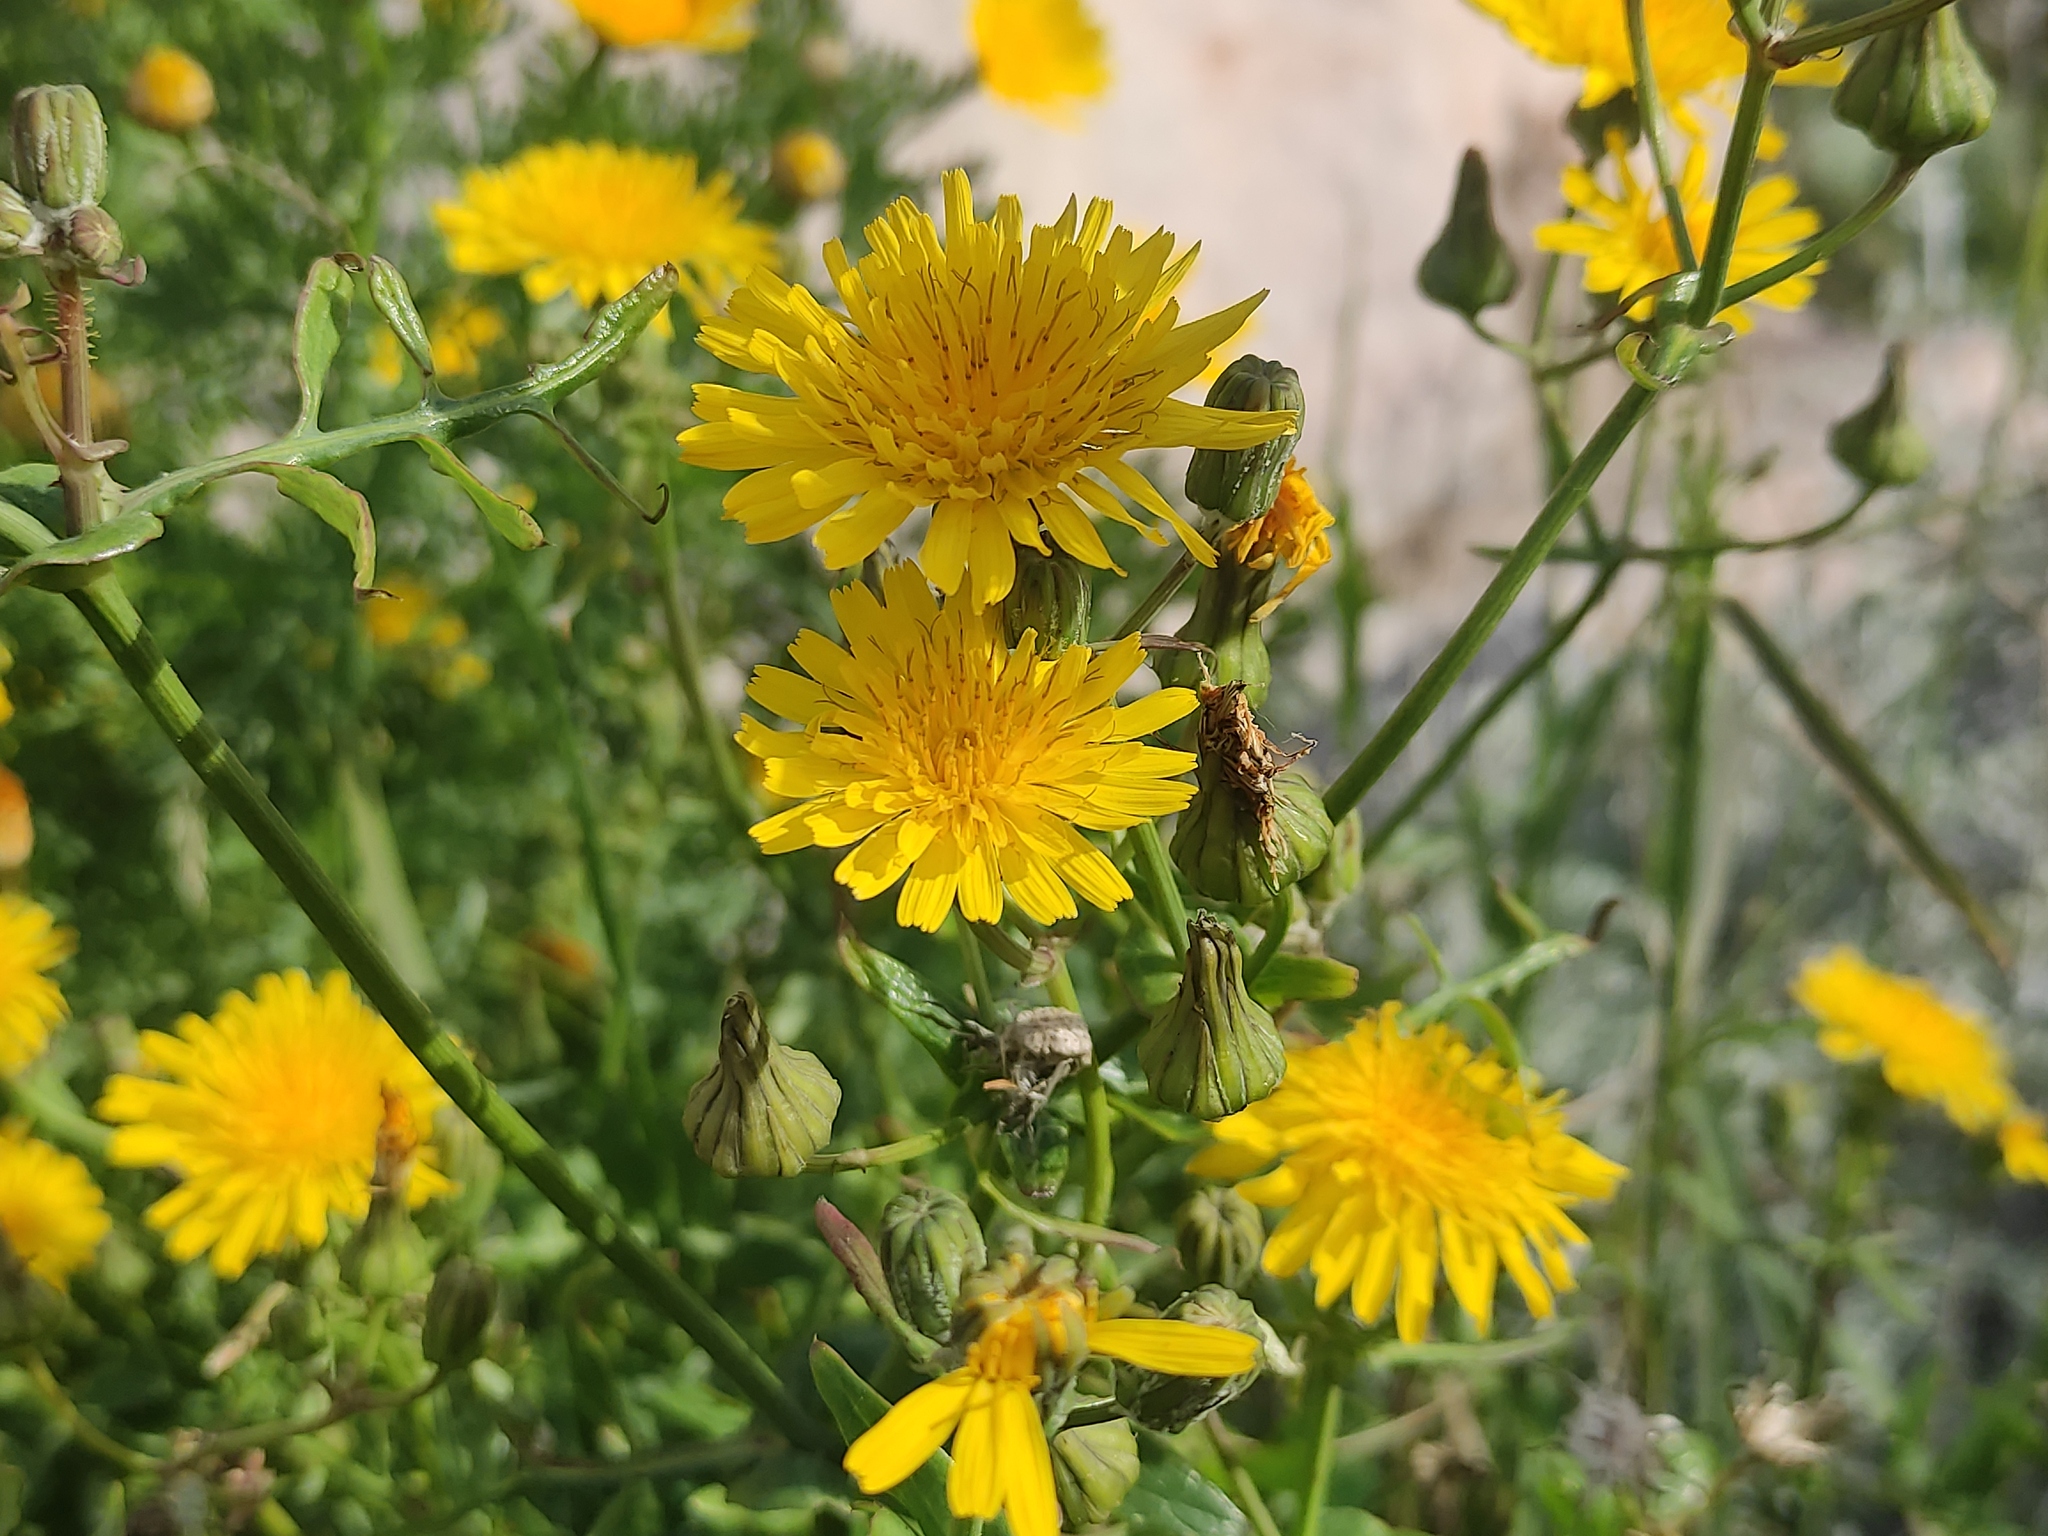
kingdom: Plantae
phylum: Tracheophyta
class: Magnoliopsida
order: Asterales
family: Asteraceae
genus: Sonchus
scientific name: Sonchus tenerrimus
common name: Clammy sowthistle
